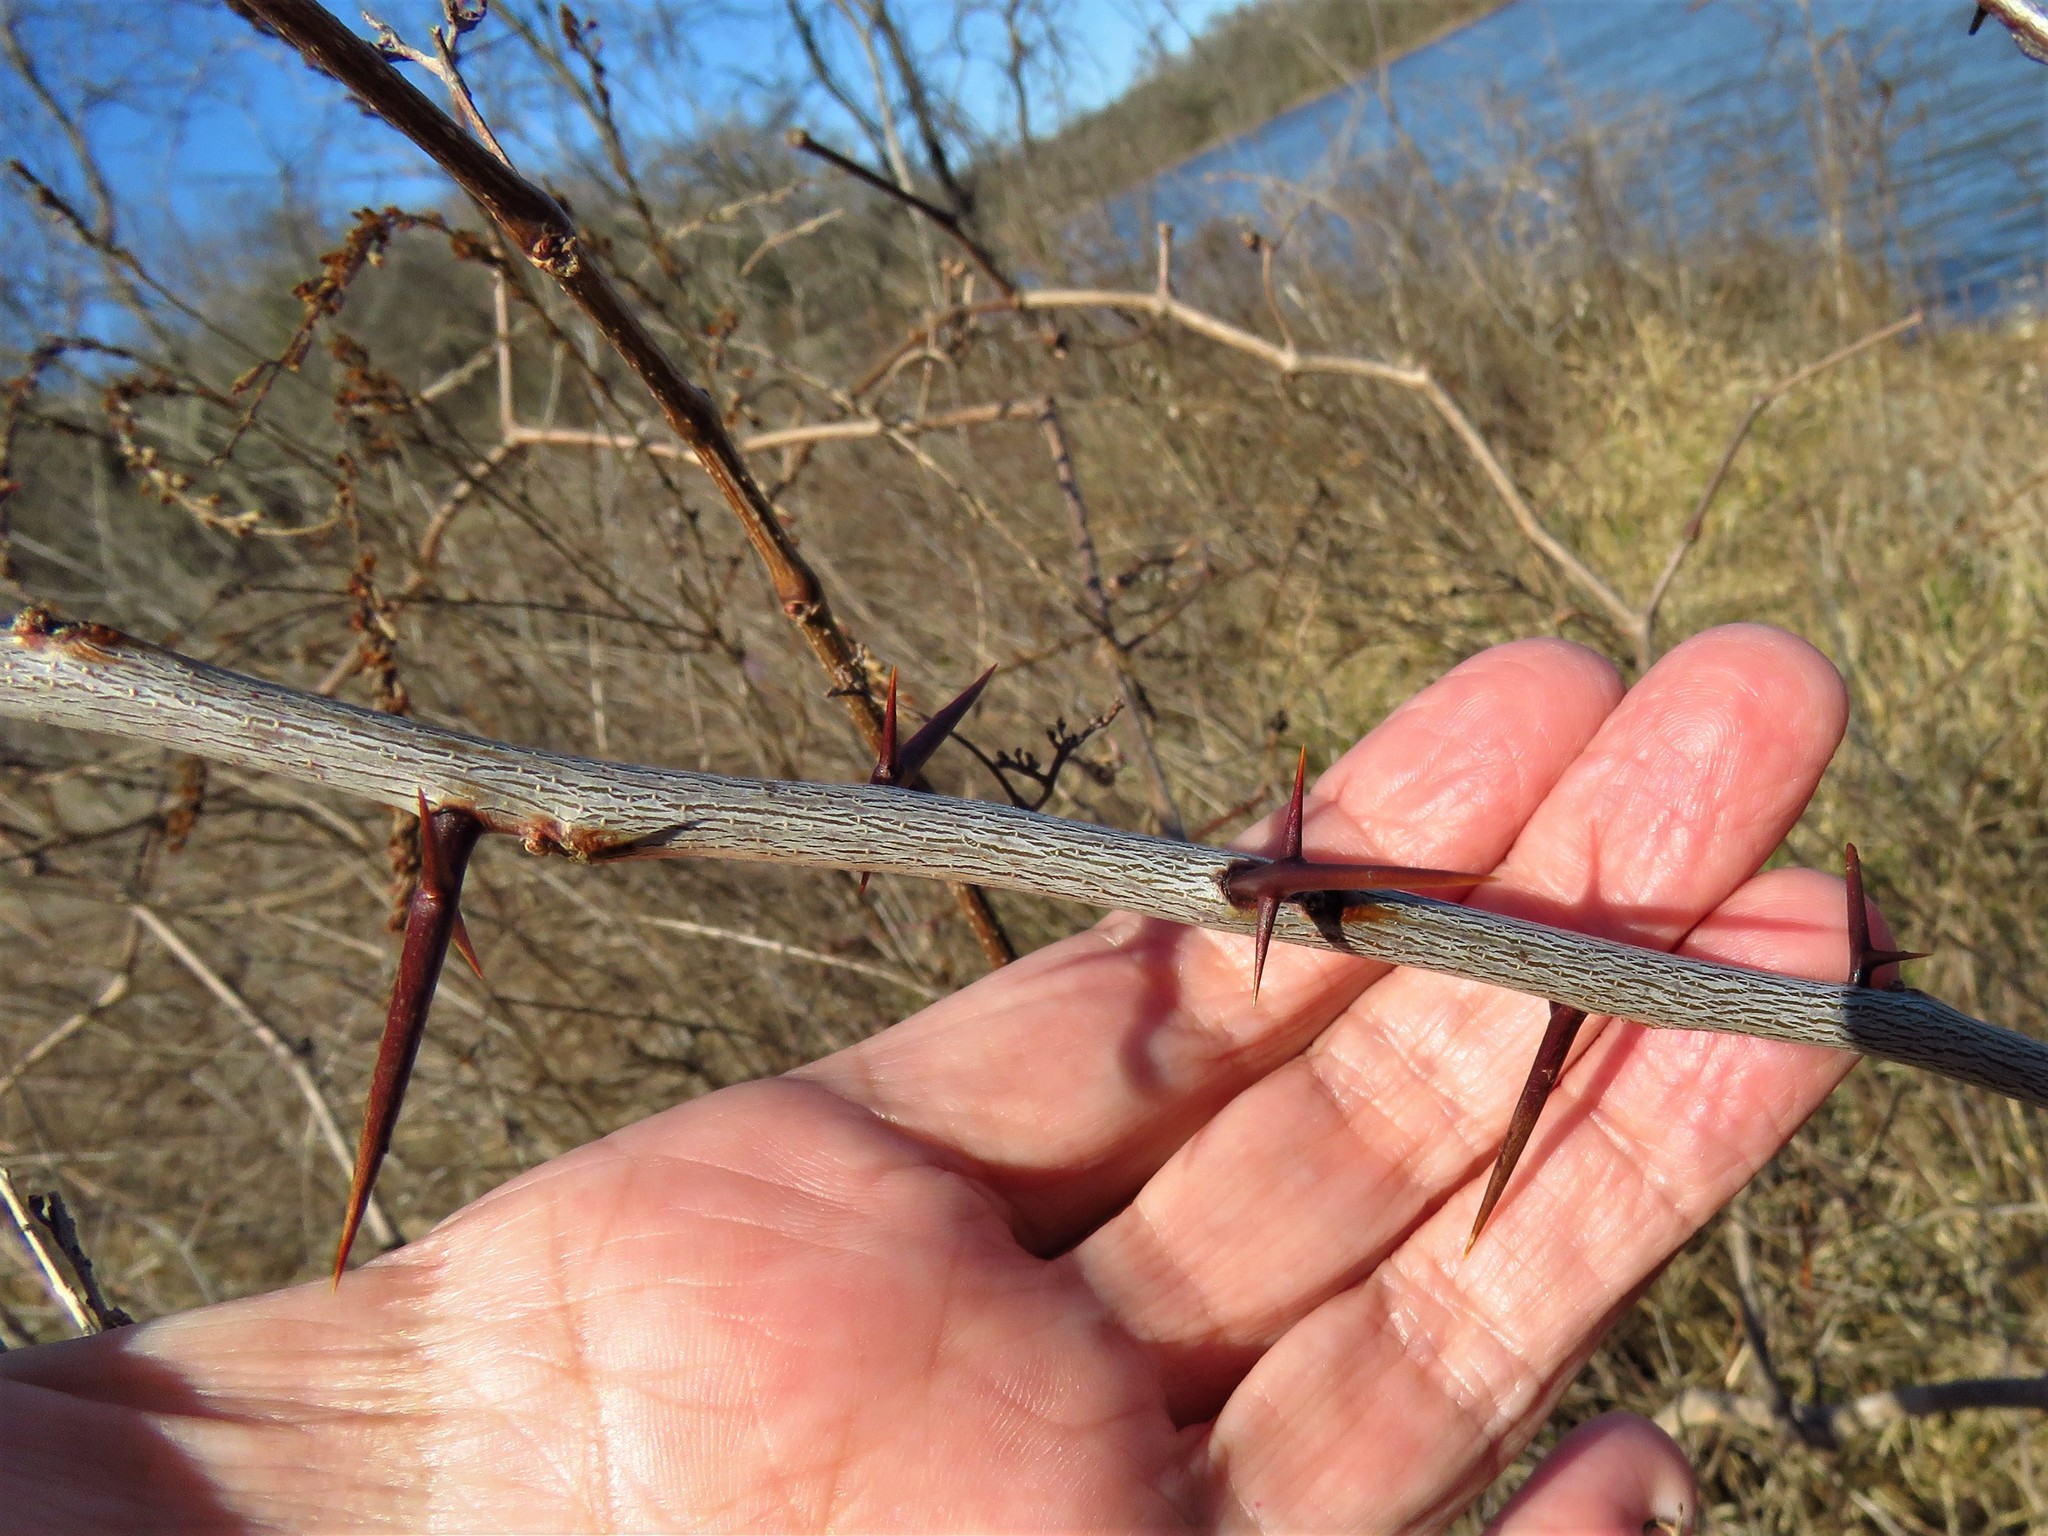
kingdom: Plantae
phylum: Tracheophyta
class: Magnoliopsida
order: Fabales
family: Fabaceae
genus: Gleditsia
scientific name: Gleditsia triacanthos
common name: Common honeylocust
